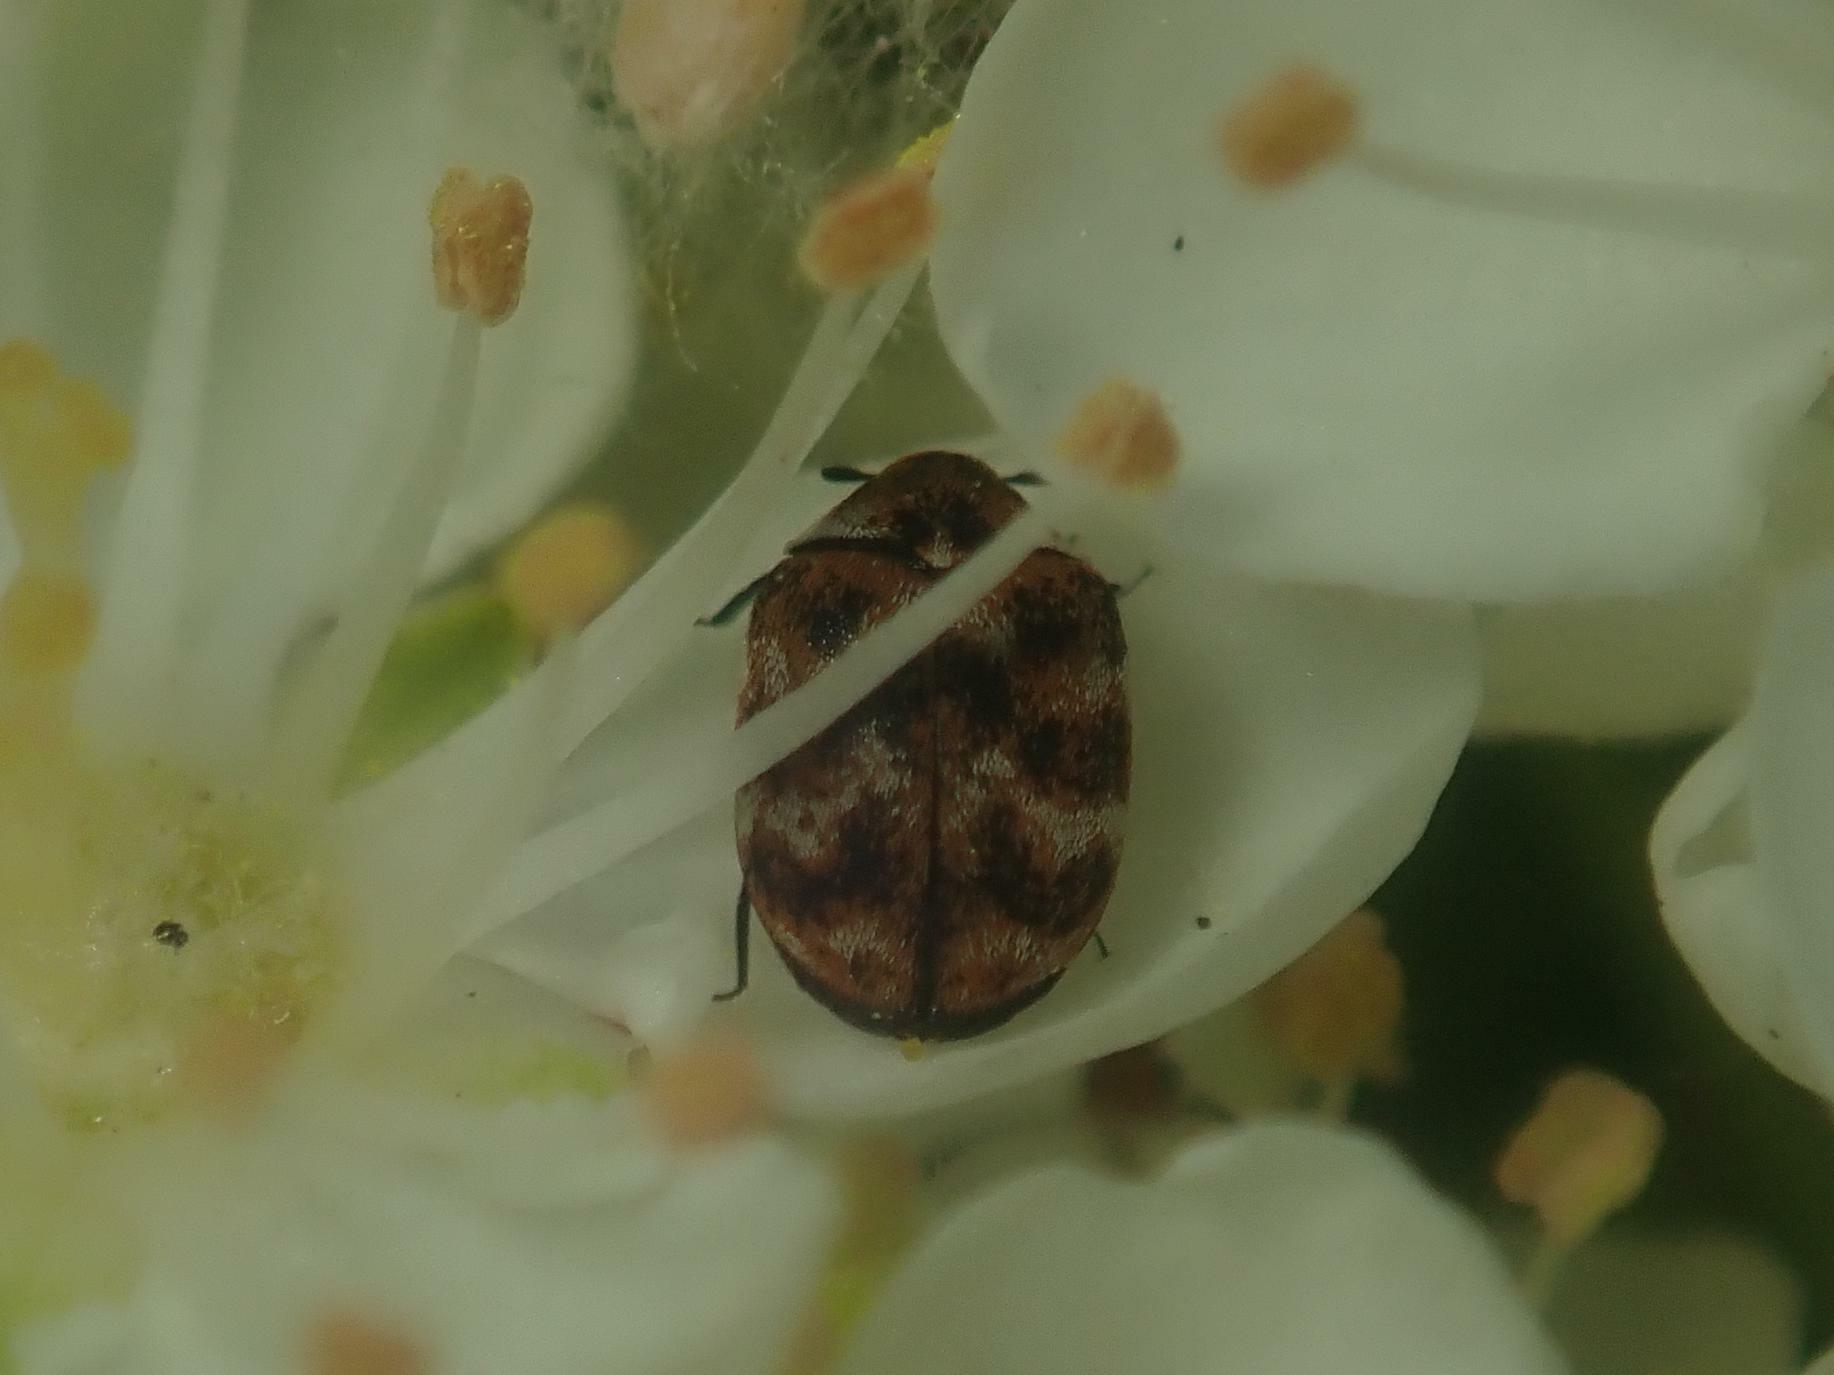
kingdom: Animalia
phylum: Arthropoda
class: Insecta
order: Coleoptera
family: Dermestidae
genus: Anthrenus
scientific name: Anthrenus verbasci
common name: Varied carpet beetle
